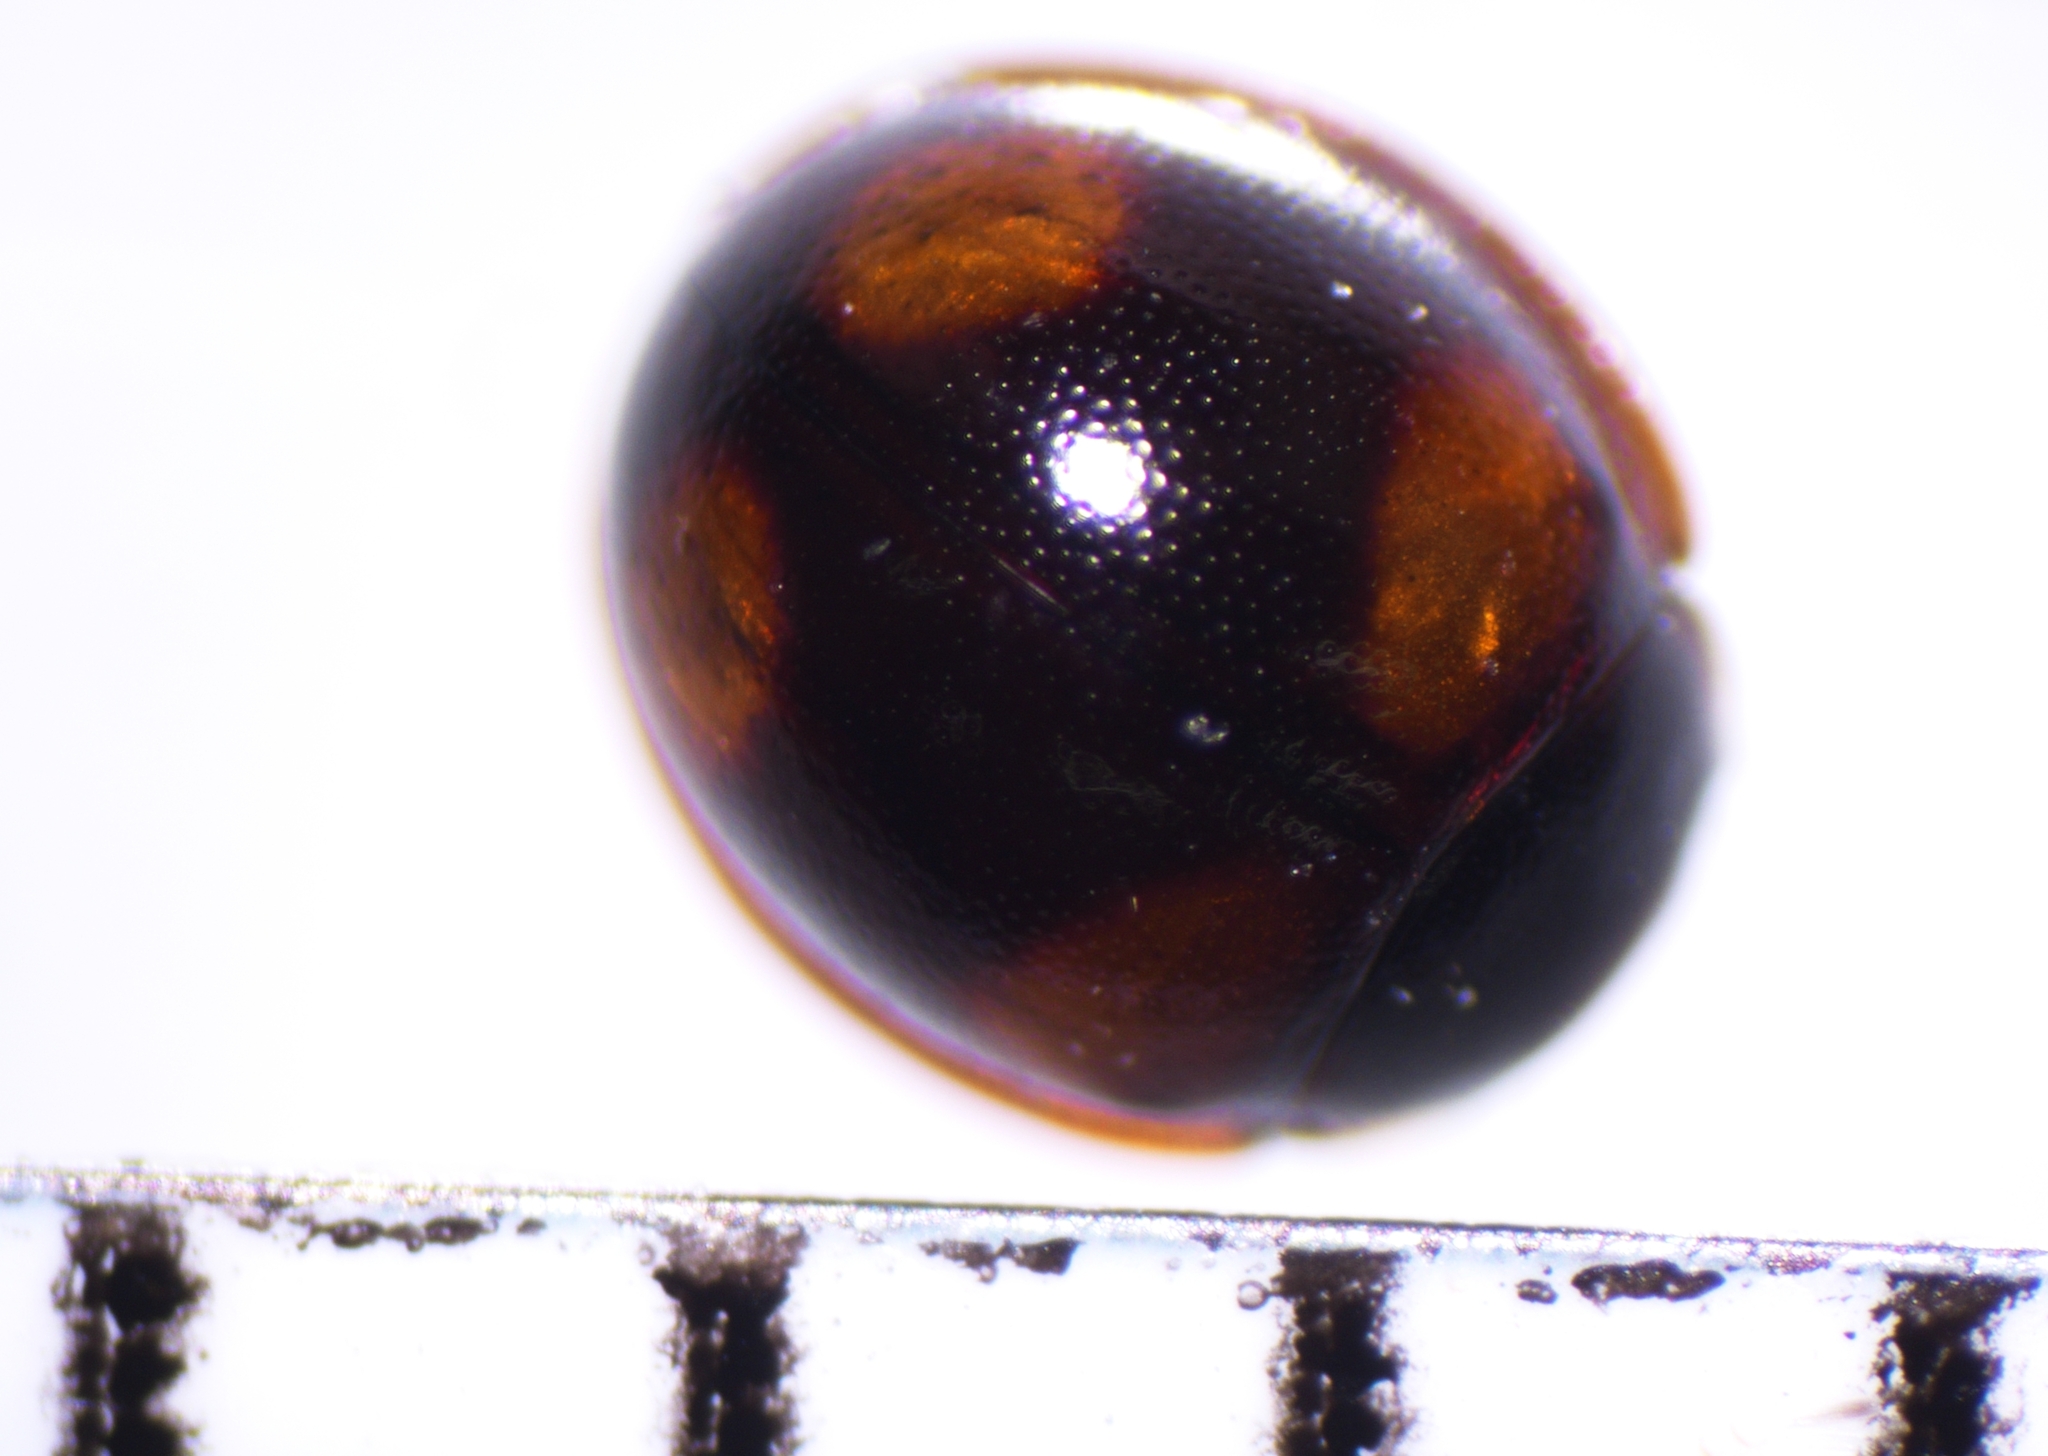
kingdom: Animalia
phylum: Arthropoda
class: Insecta
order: Coleoptera
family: Coccinellidae
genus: Sticholotis
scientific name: Sticholotis ruficeps
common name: Lady beetle
